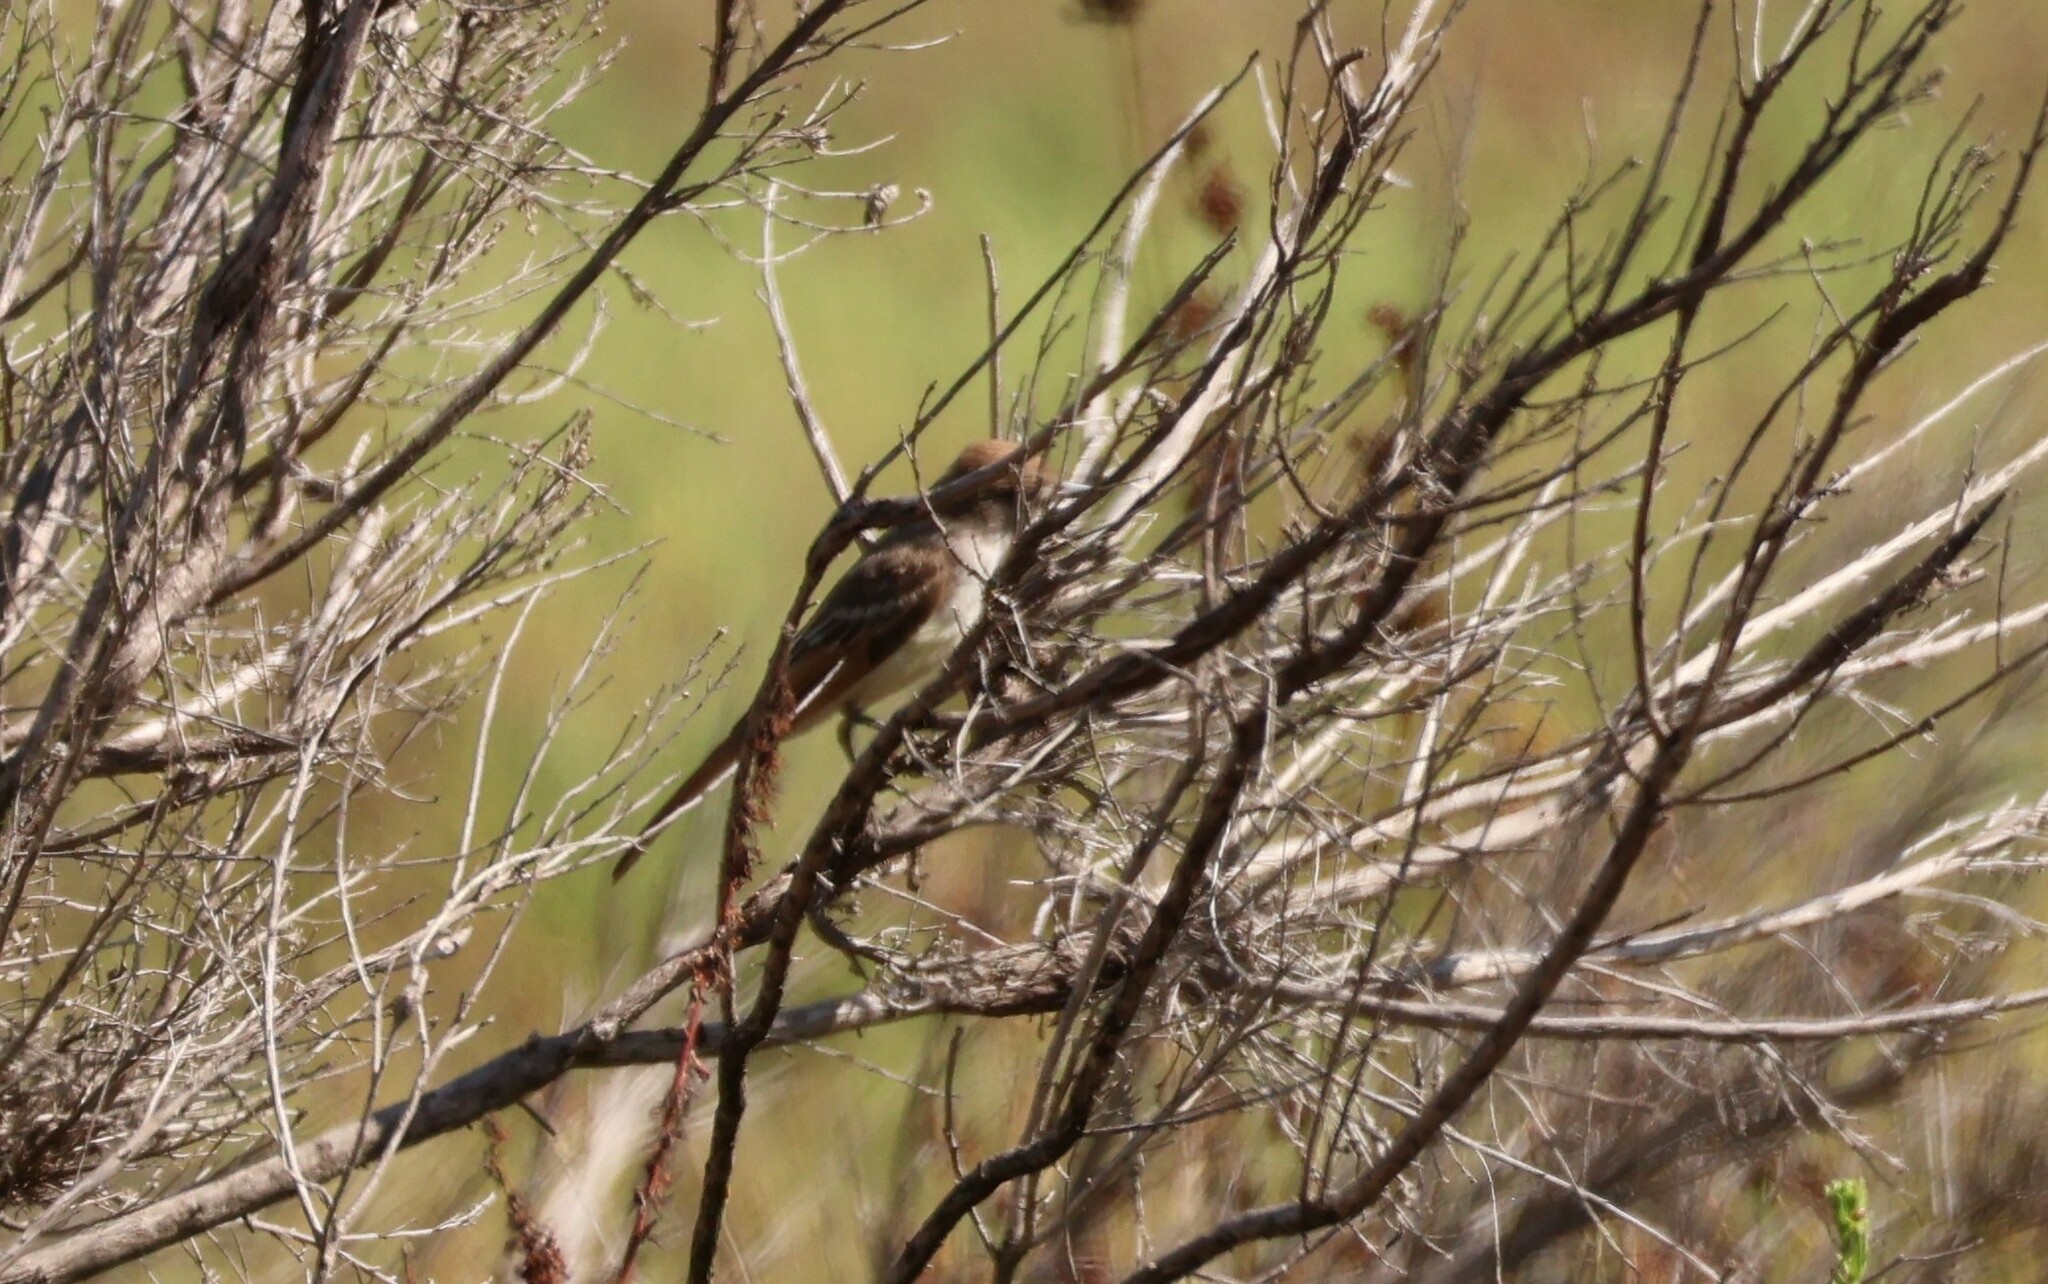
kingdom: Animalia
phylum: Chordata
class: Aves
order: Passeriformes
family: Tyrannidae
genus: Myiarchus
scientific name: Myiarchus cinerascens
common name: Ash-throated flycatcher
